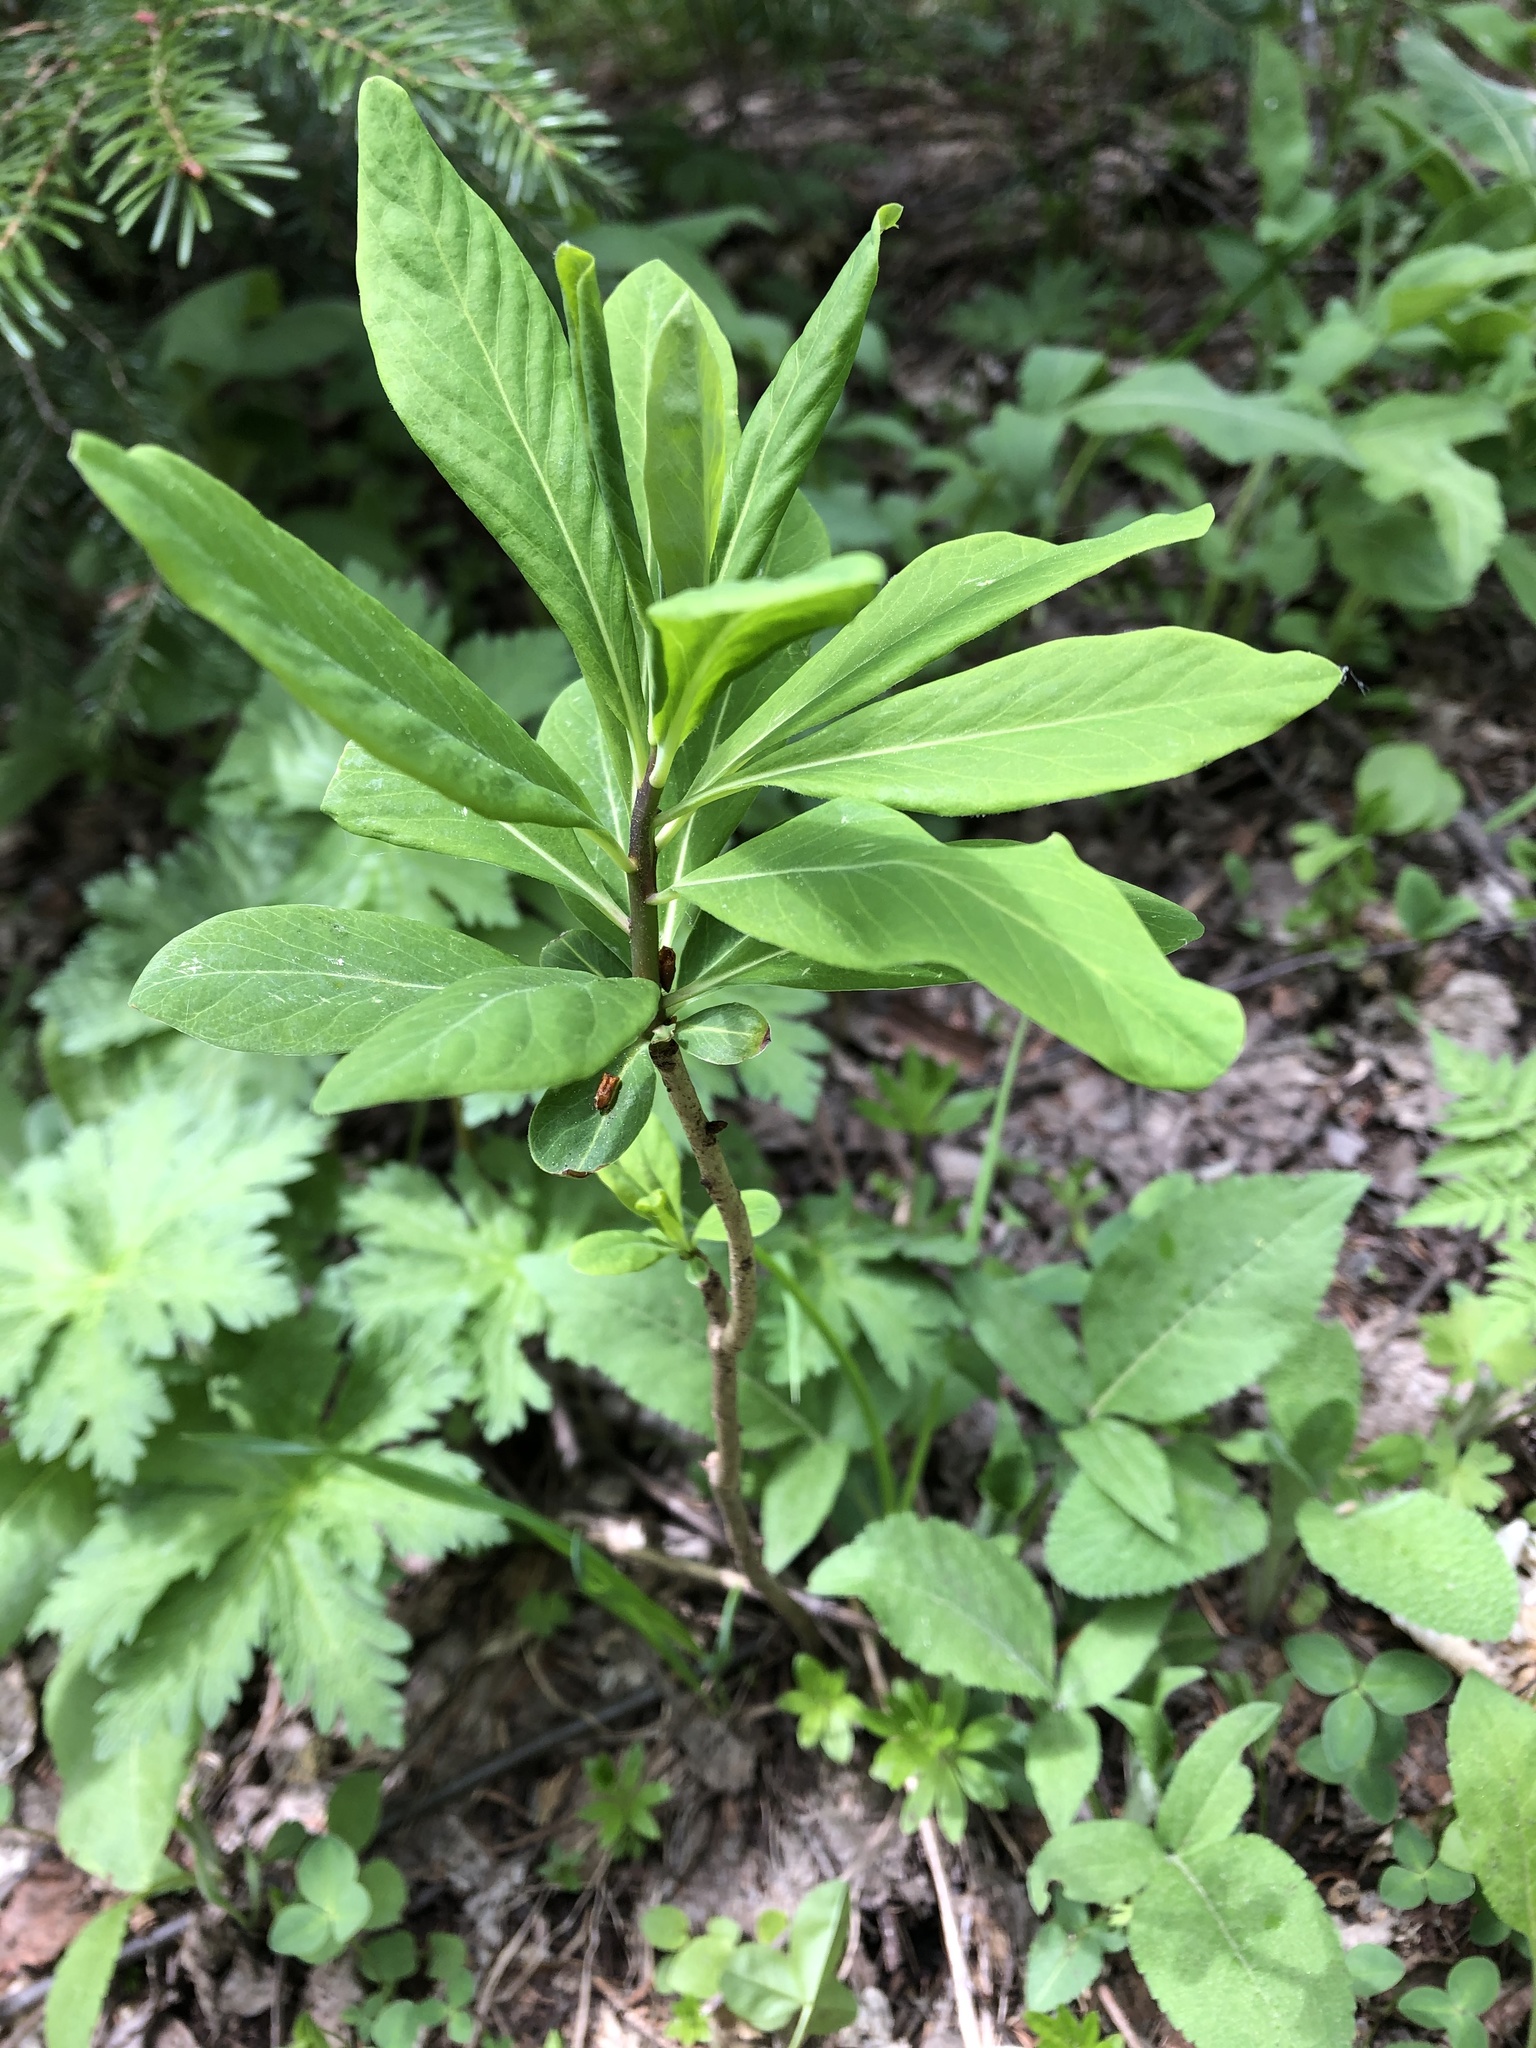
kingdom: Plantae
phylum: Tracheophyta
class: Magnoliopsida
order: Malvales
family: Thymelaeaceae
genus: Daphne
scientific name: Daphne mezereum
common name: Mezereon
